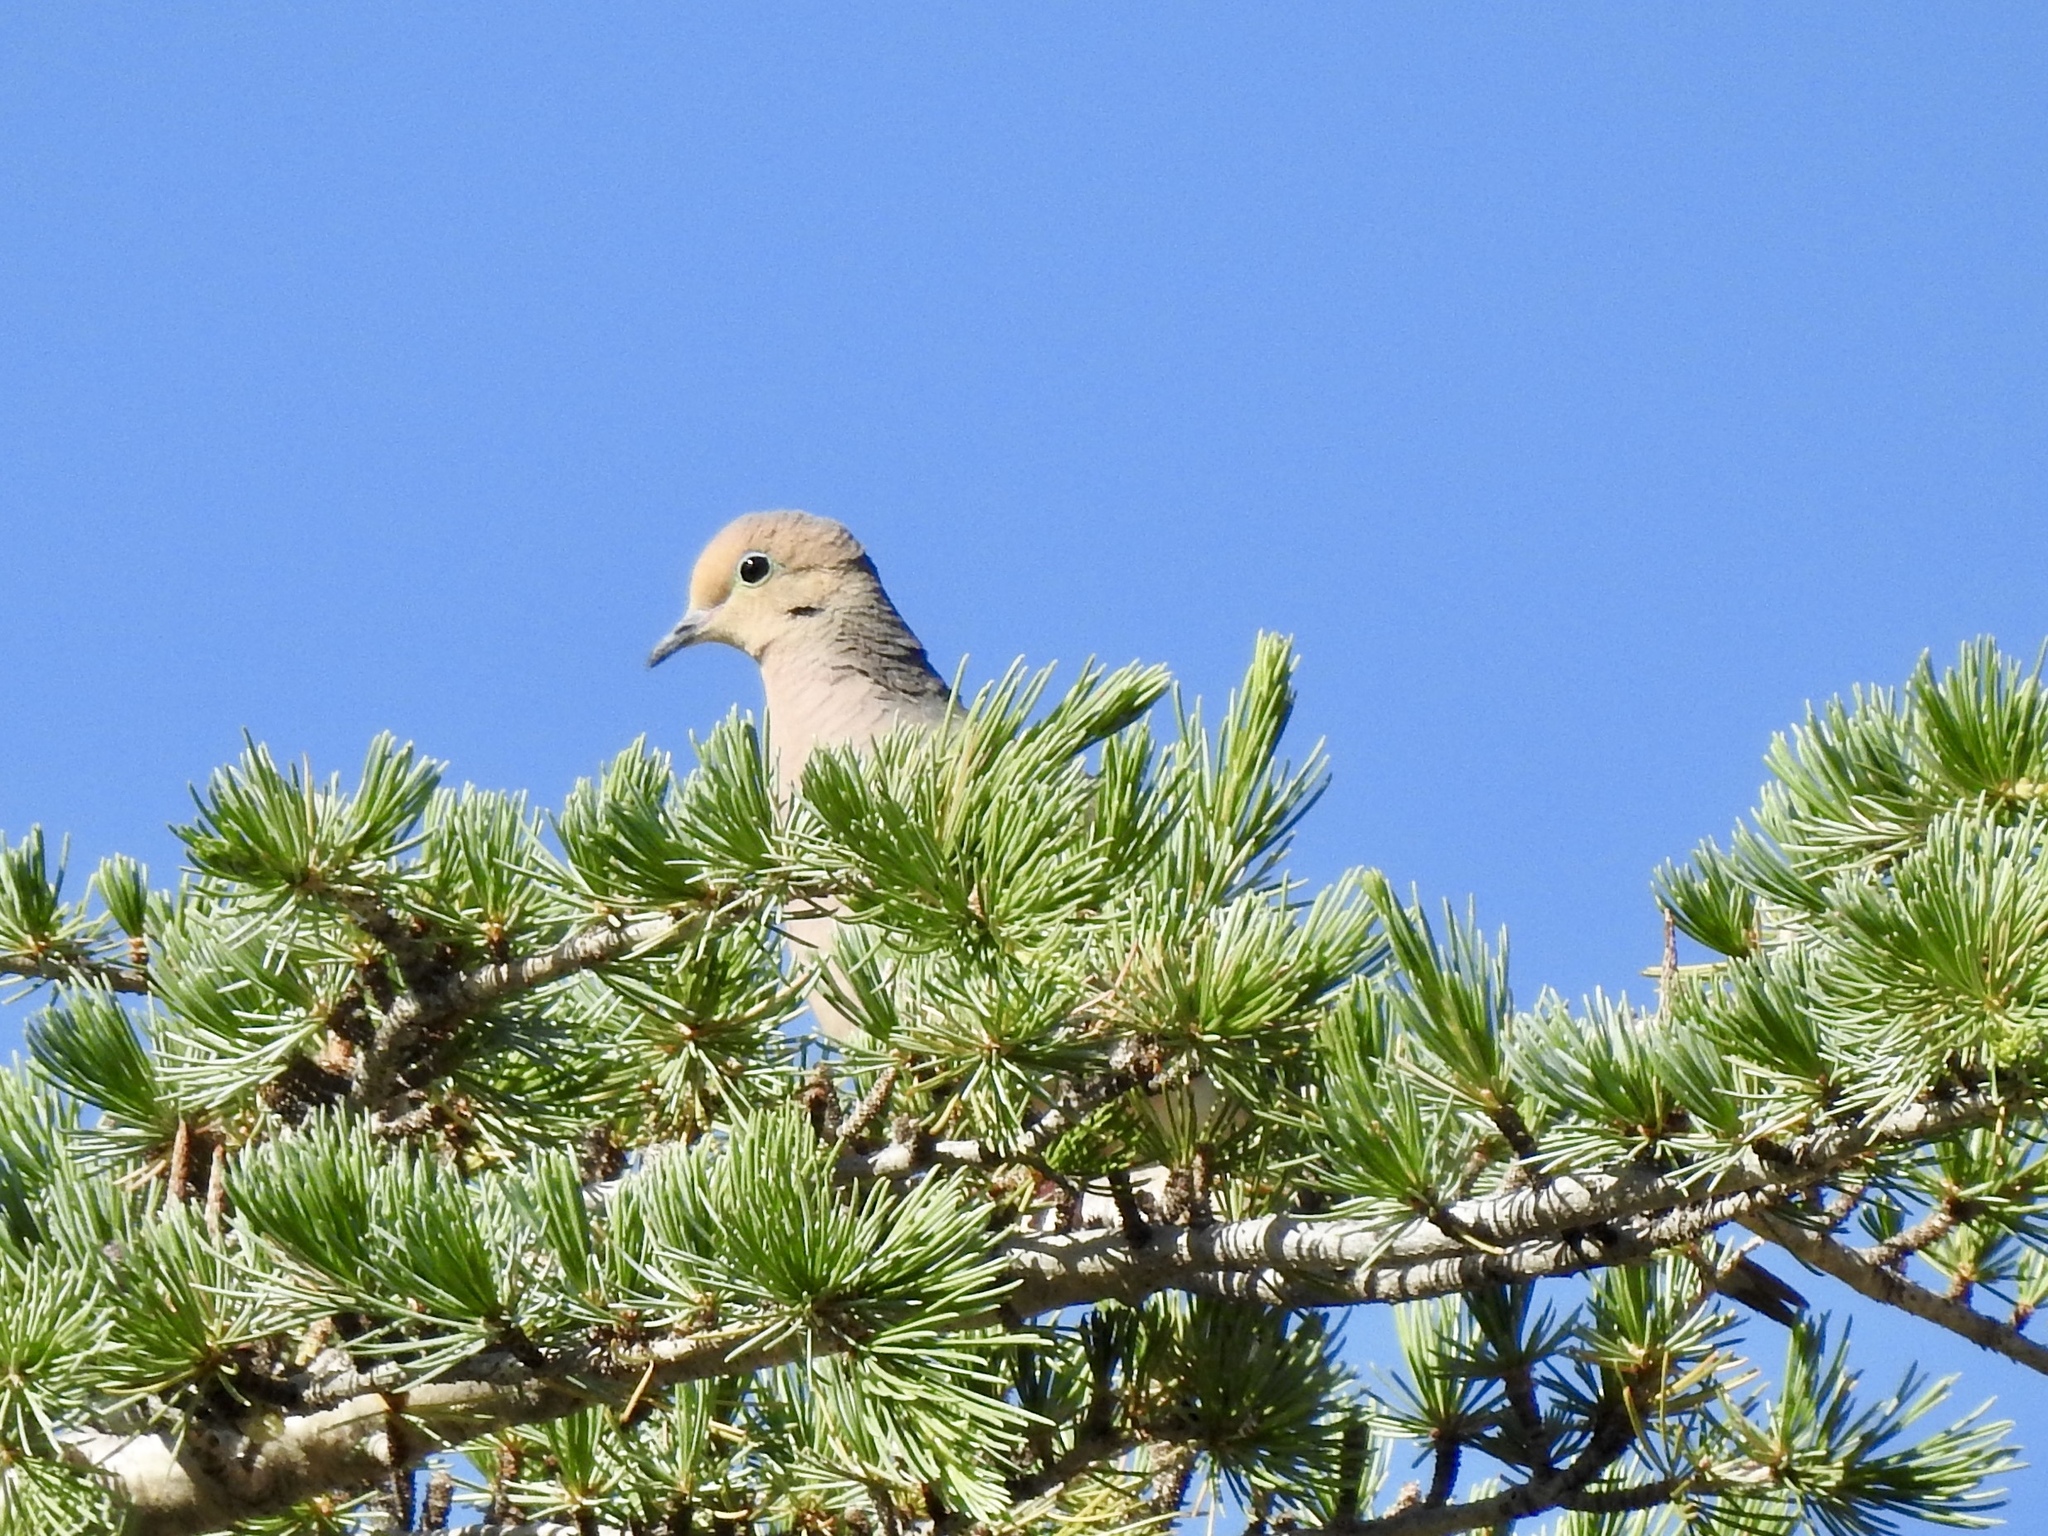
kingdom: Animalia
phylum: Chordata
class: Aves
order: Columbiformes
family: Columbidae
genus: Zenaida
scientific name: Zenaida macroura
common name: Mourning dove
